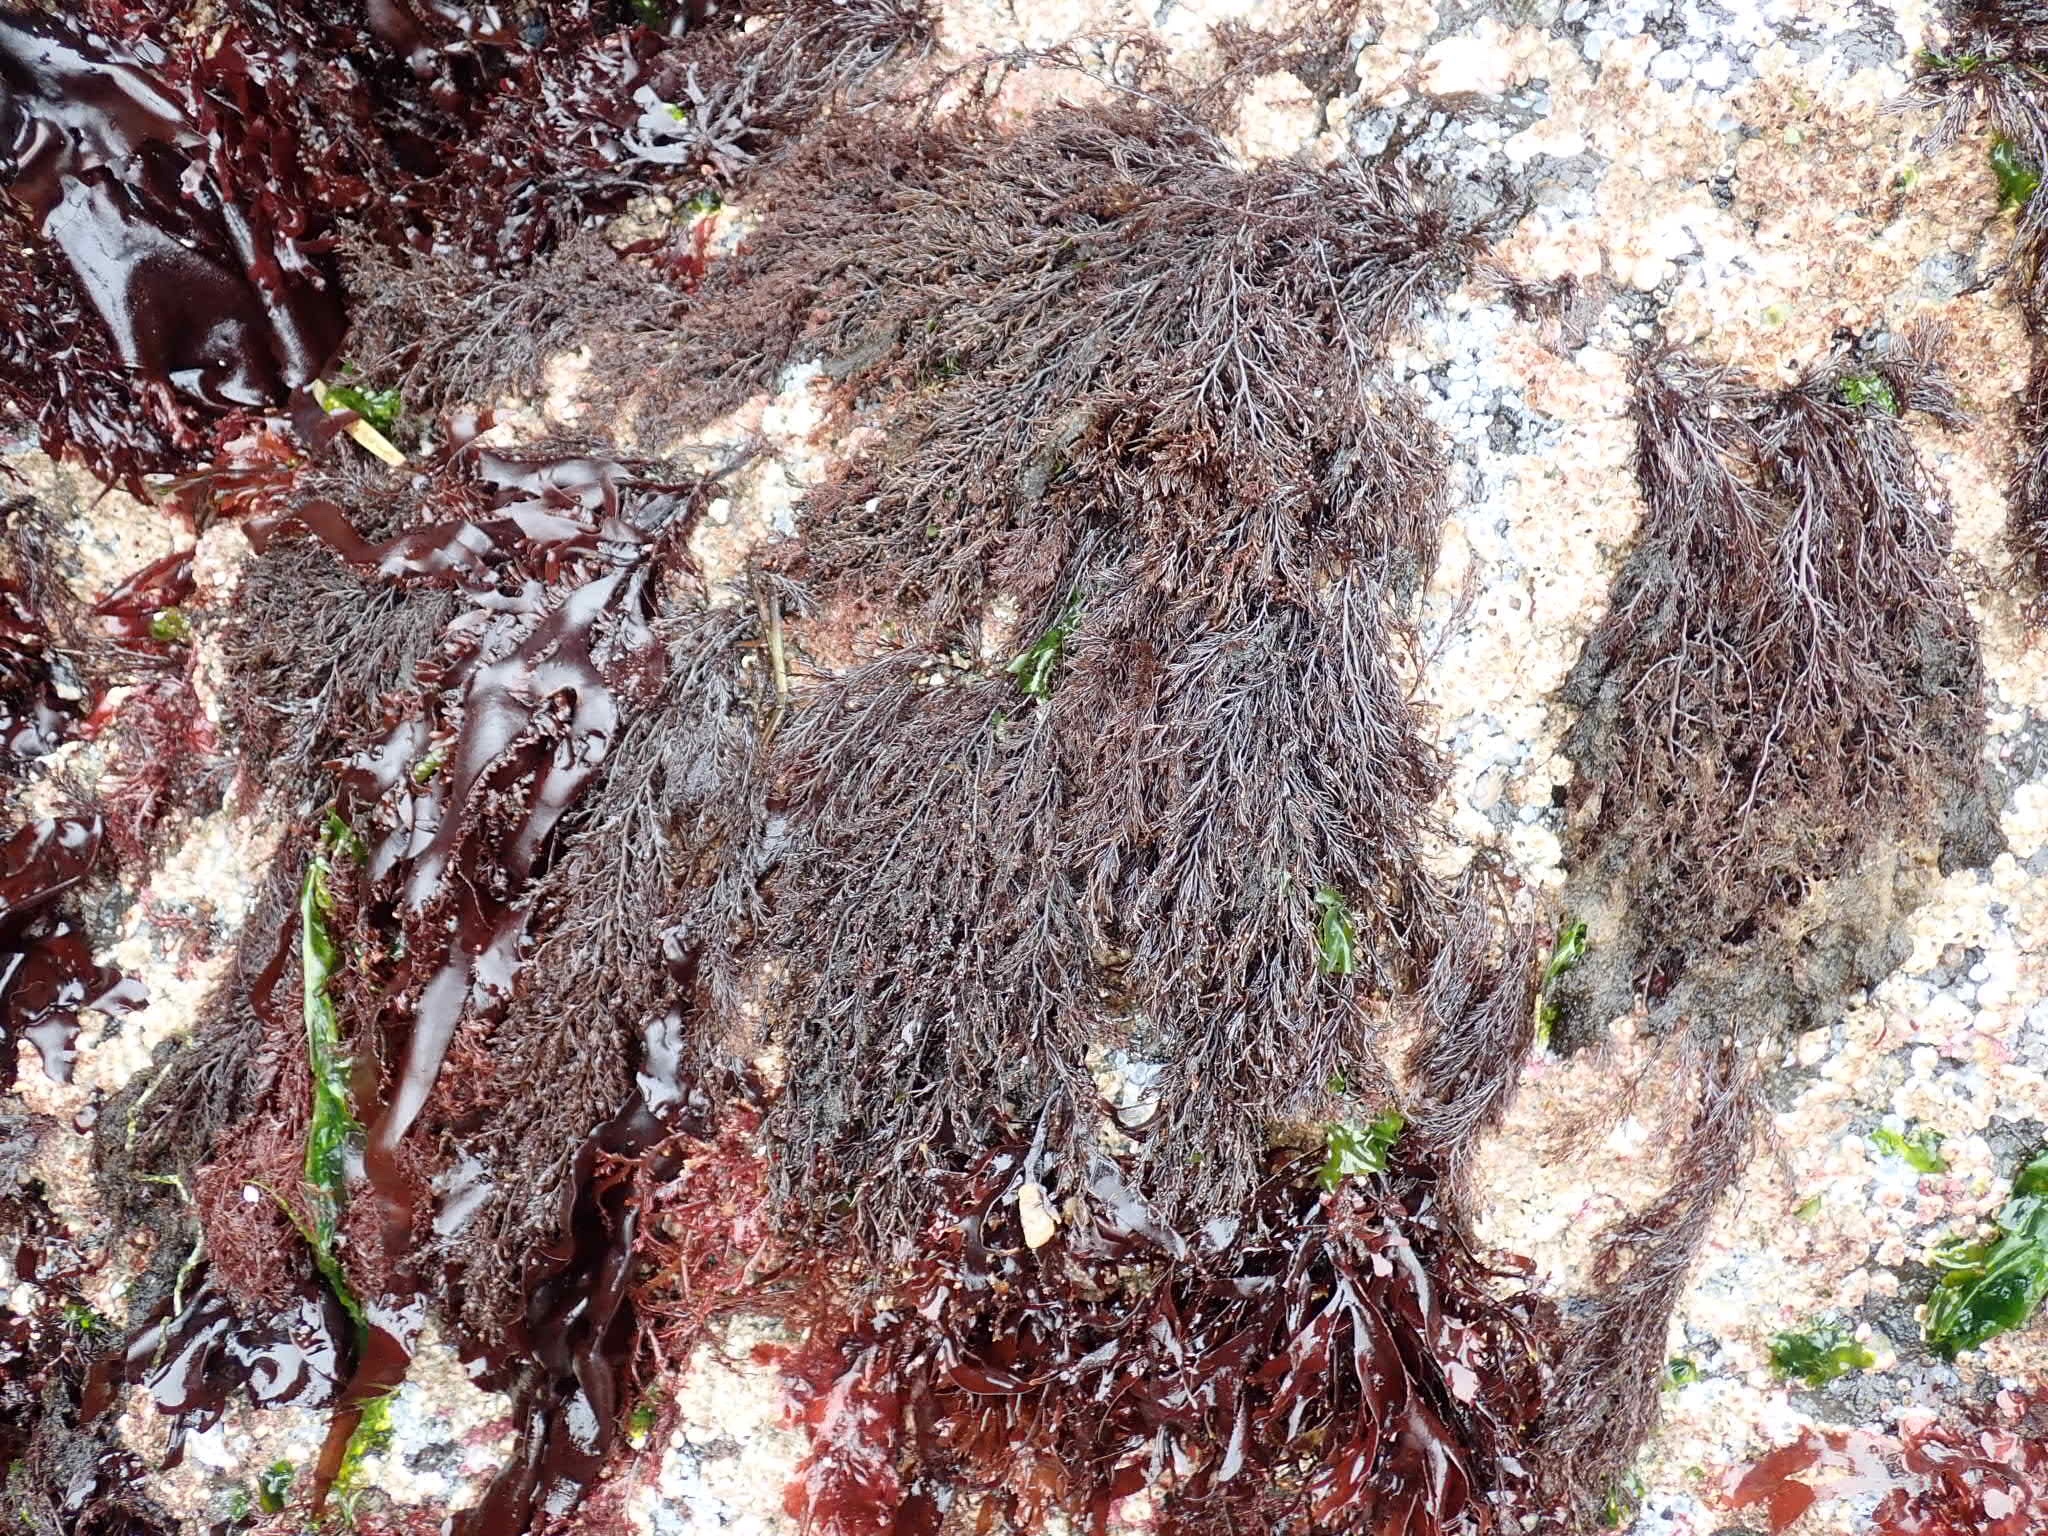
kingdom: Plantae
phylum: Rhodophyta
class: Florideophyceae
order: Ceramiales
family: Rhodomelaceae
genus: Odonthalia
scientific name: Odonthalia floccosa
